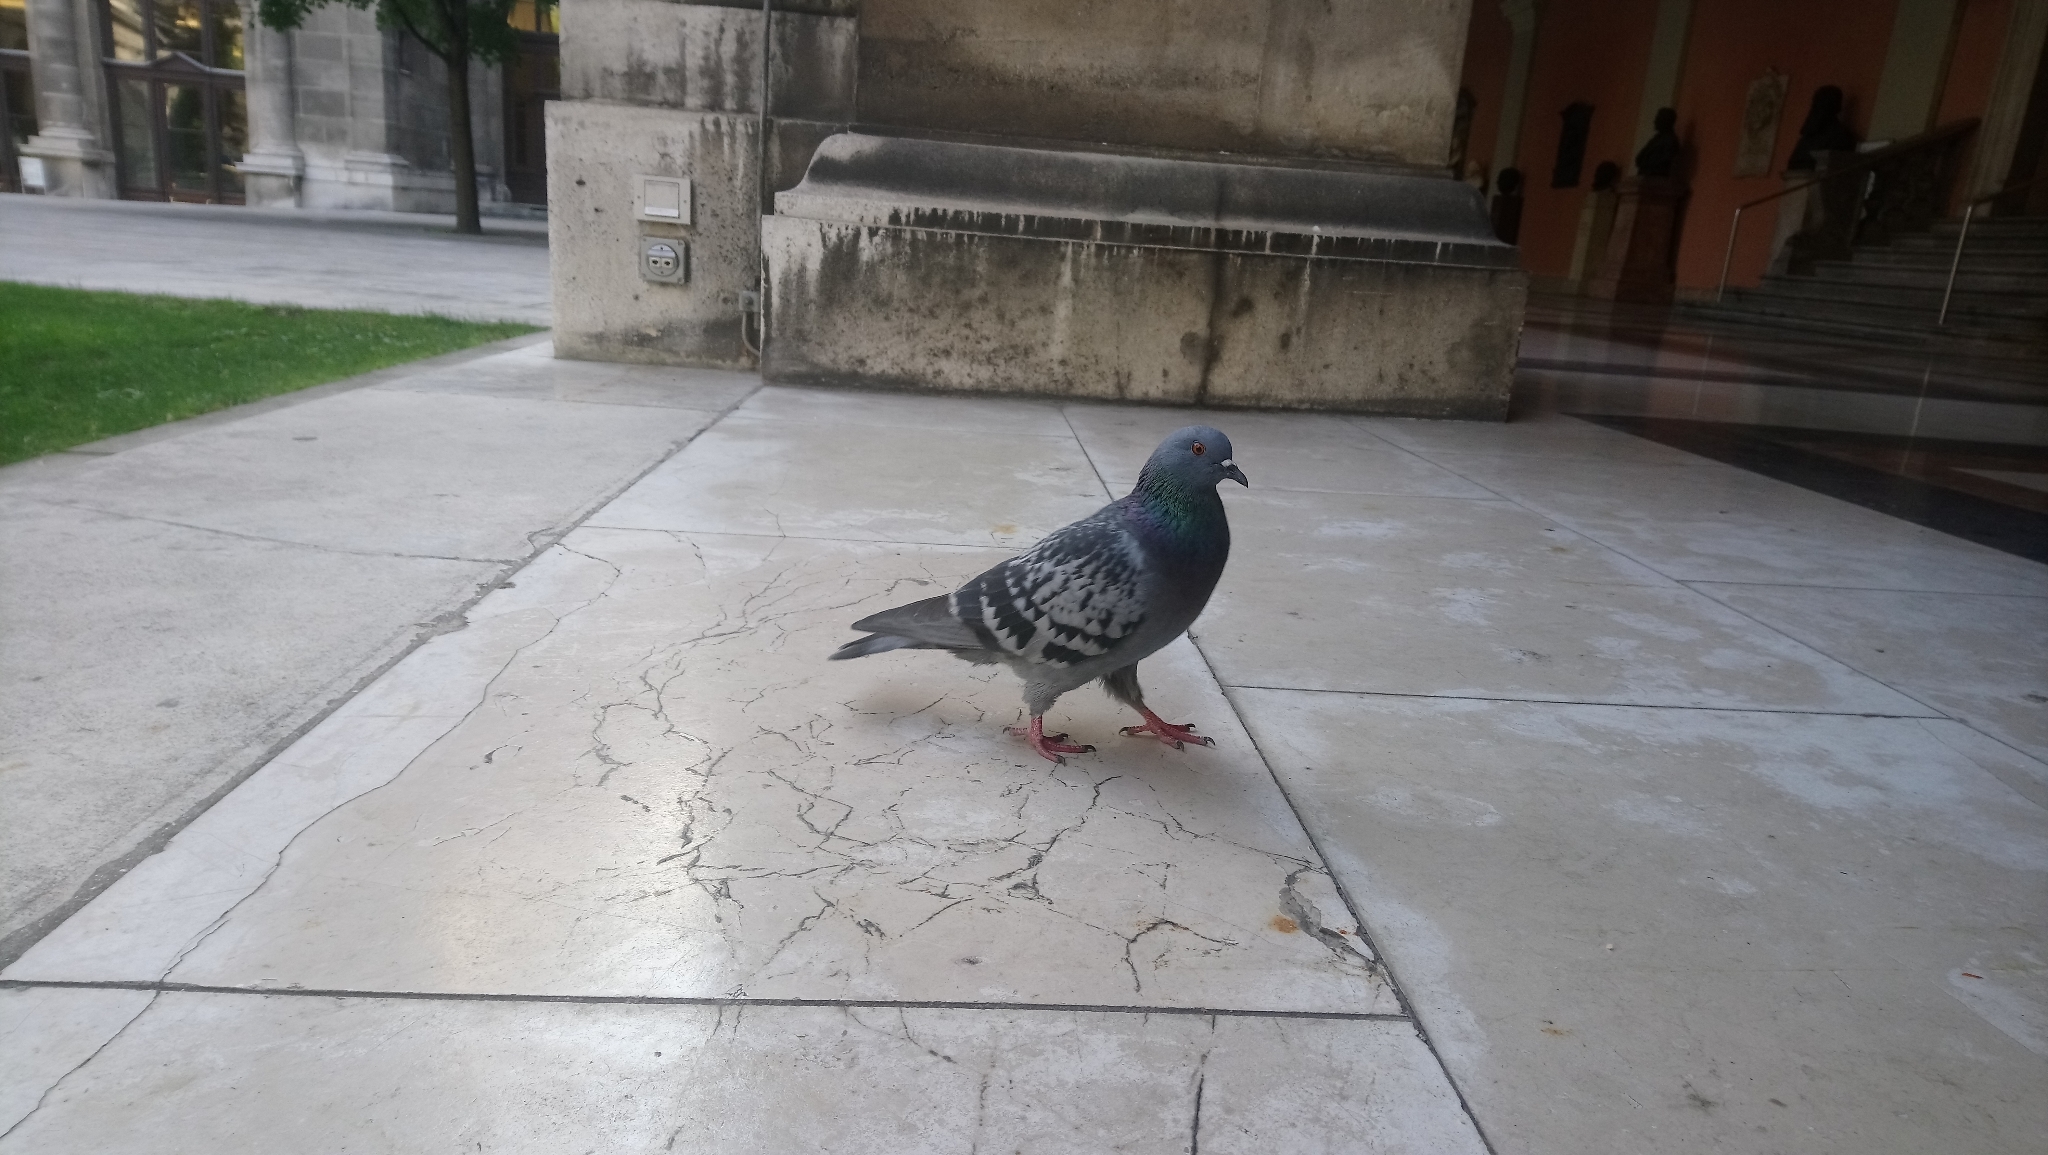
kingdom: Animalia
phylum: Chordata
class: Aves
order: Columbiformes
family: Columbidae
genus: Columba
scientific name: Columba livia
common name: Rock pigeon
